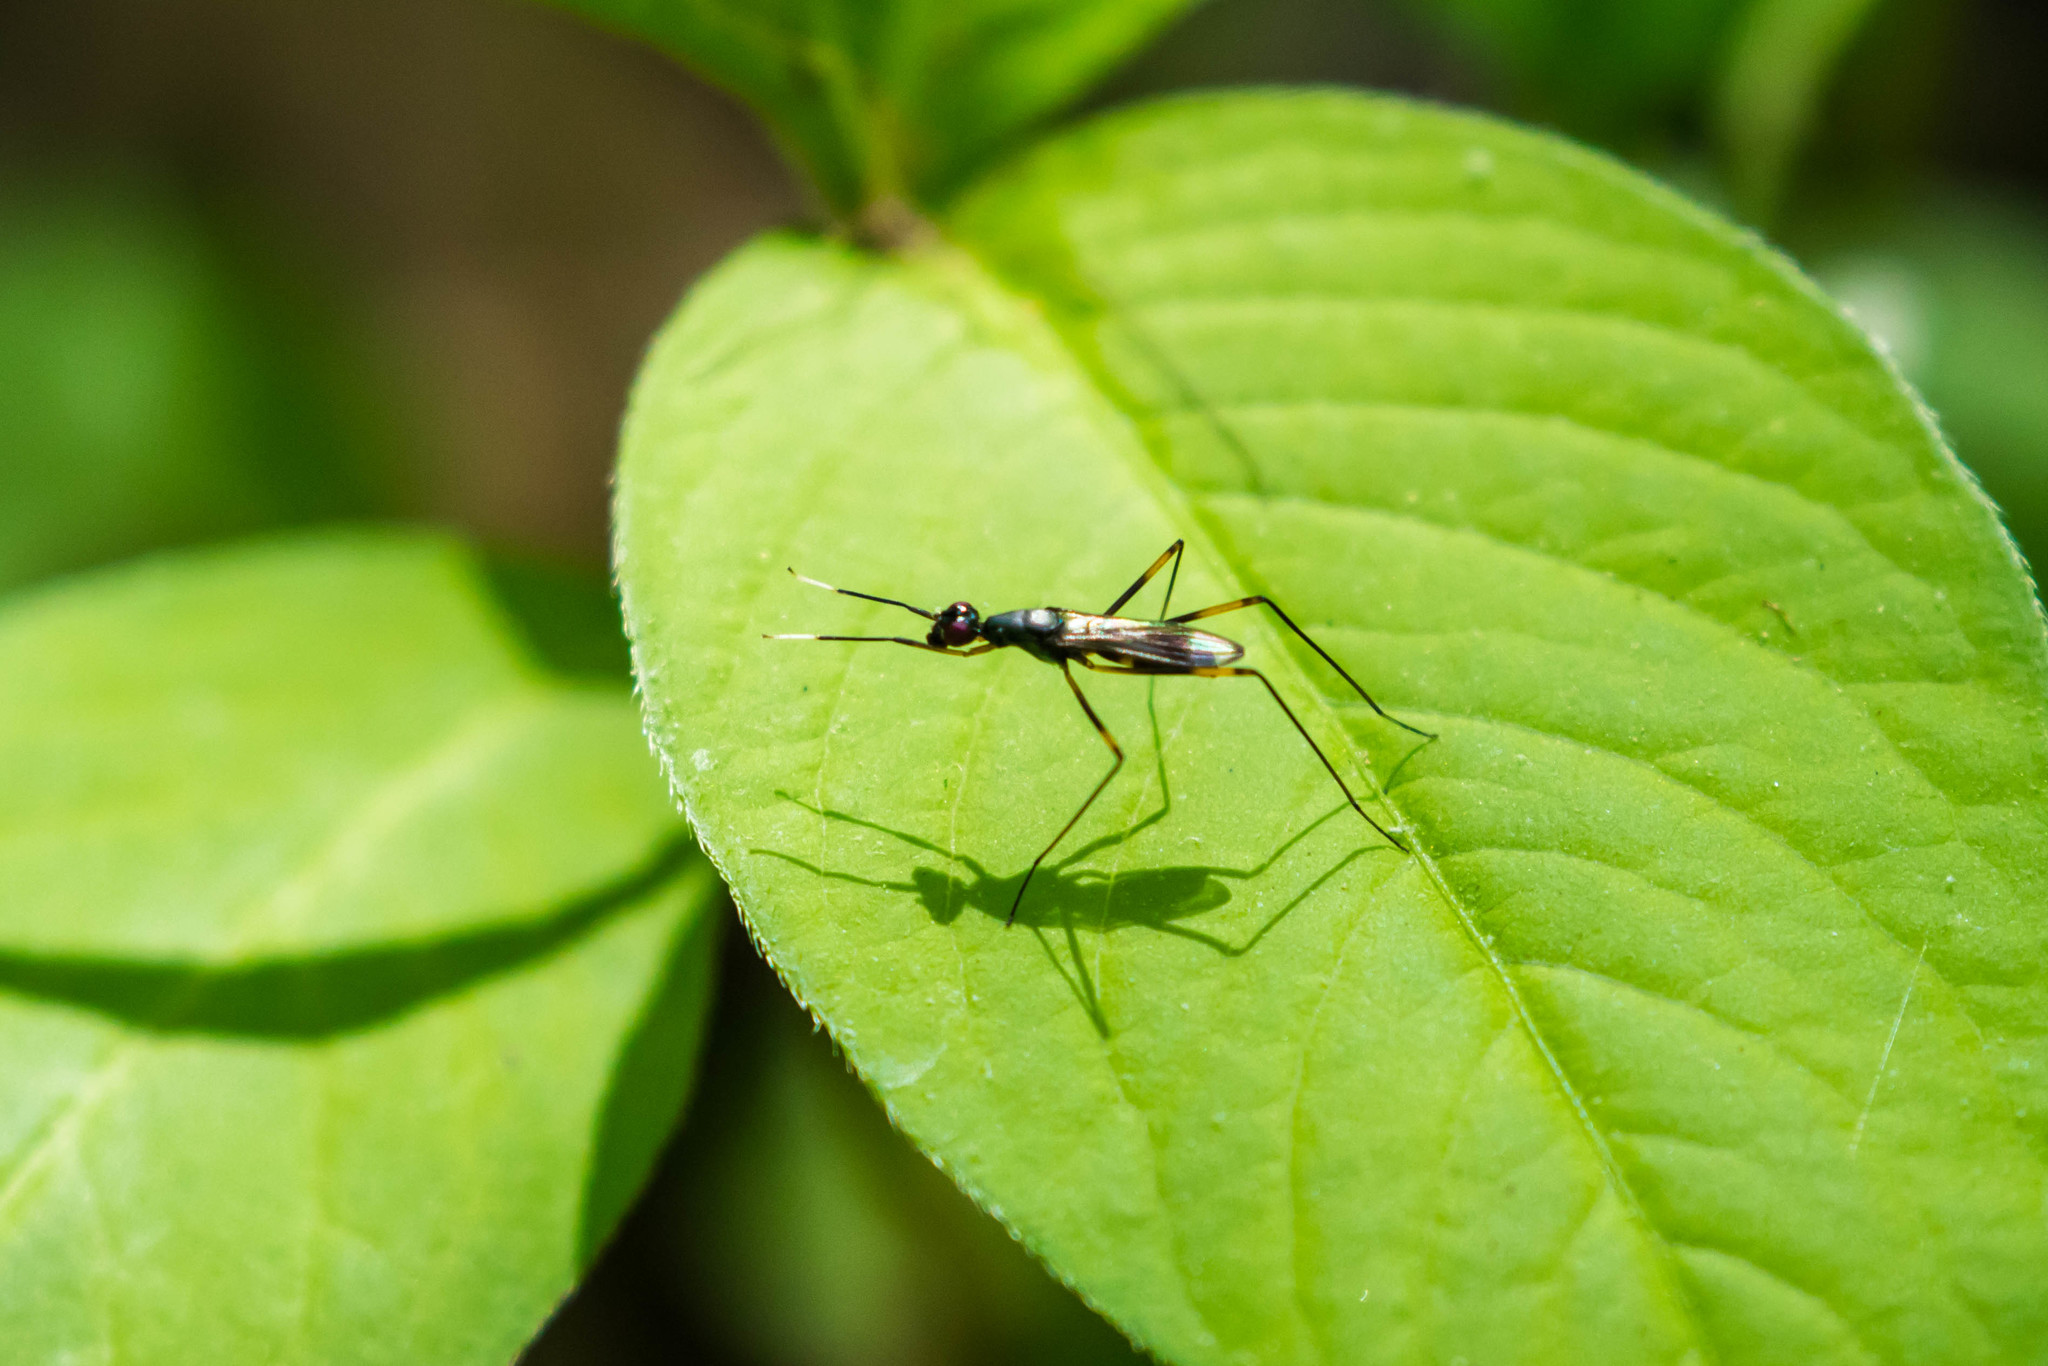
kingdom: Animalia
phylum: Arthropoda
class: Insecta
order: Diptera
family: Micropezidae
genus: Rainieria
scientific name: Rainieria antennaepes
